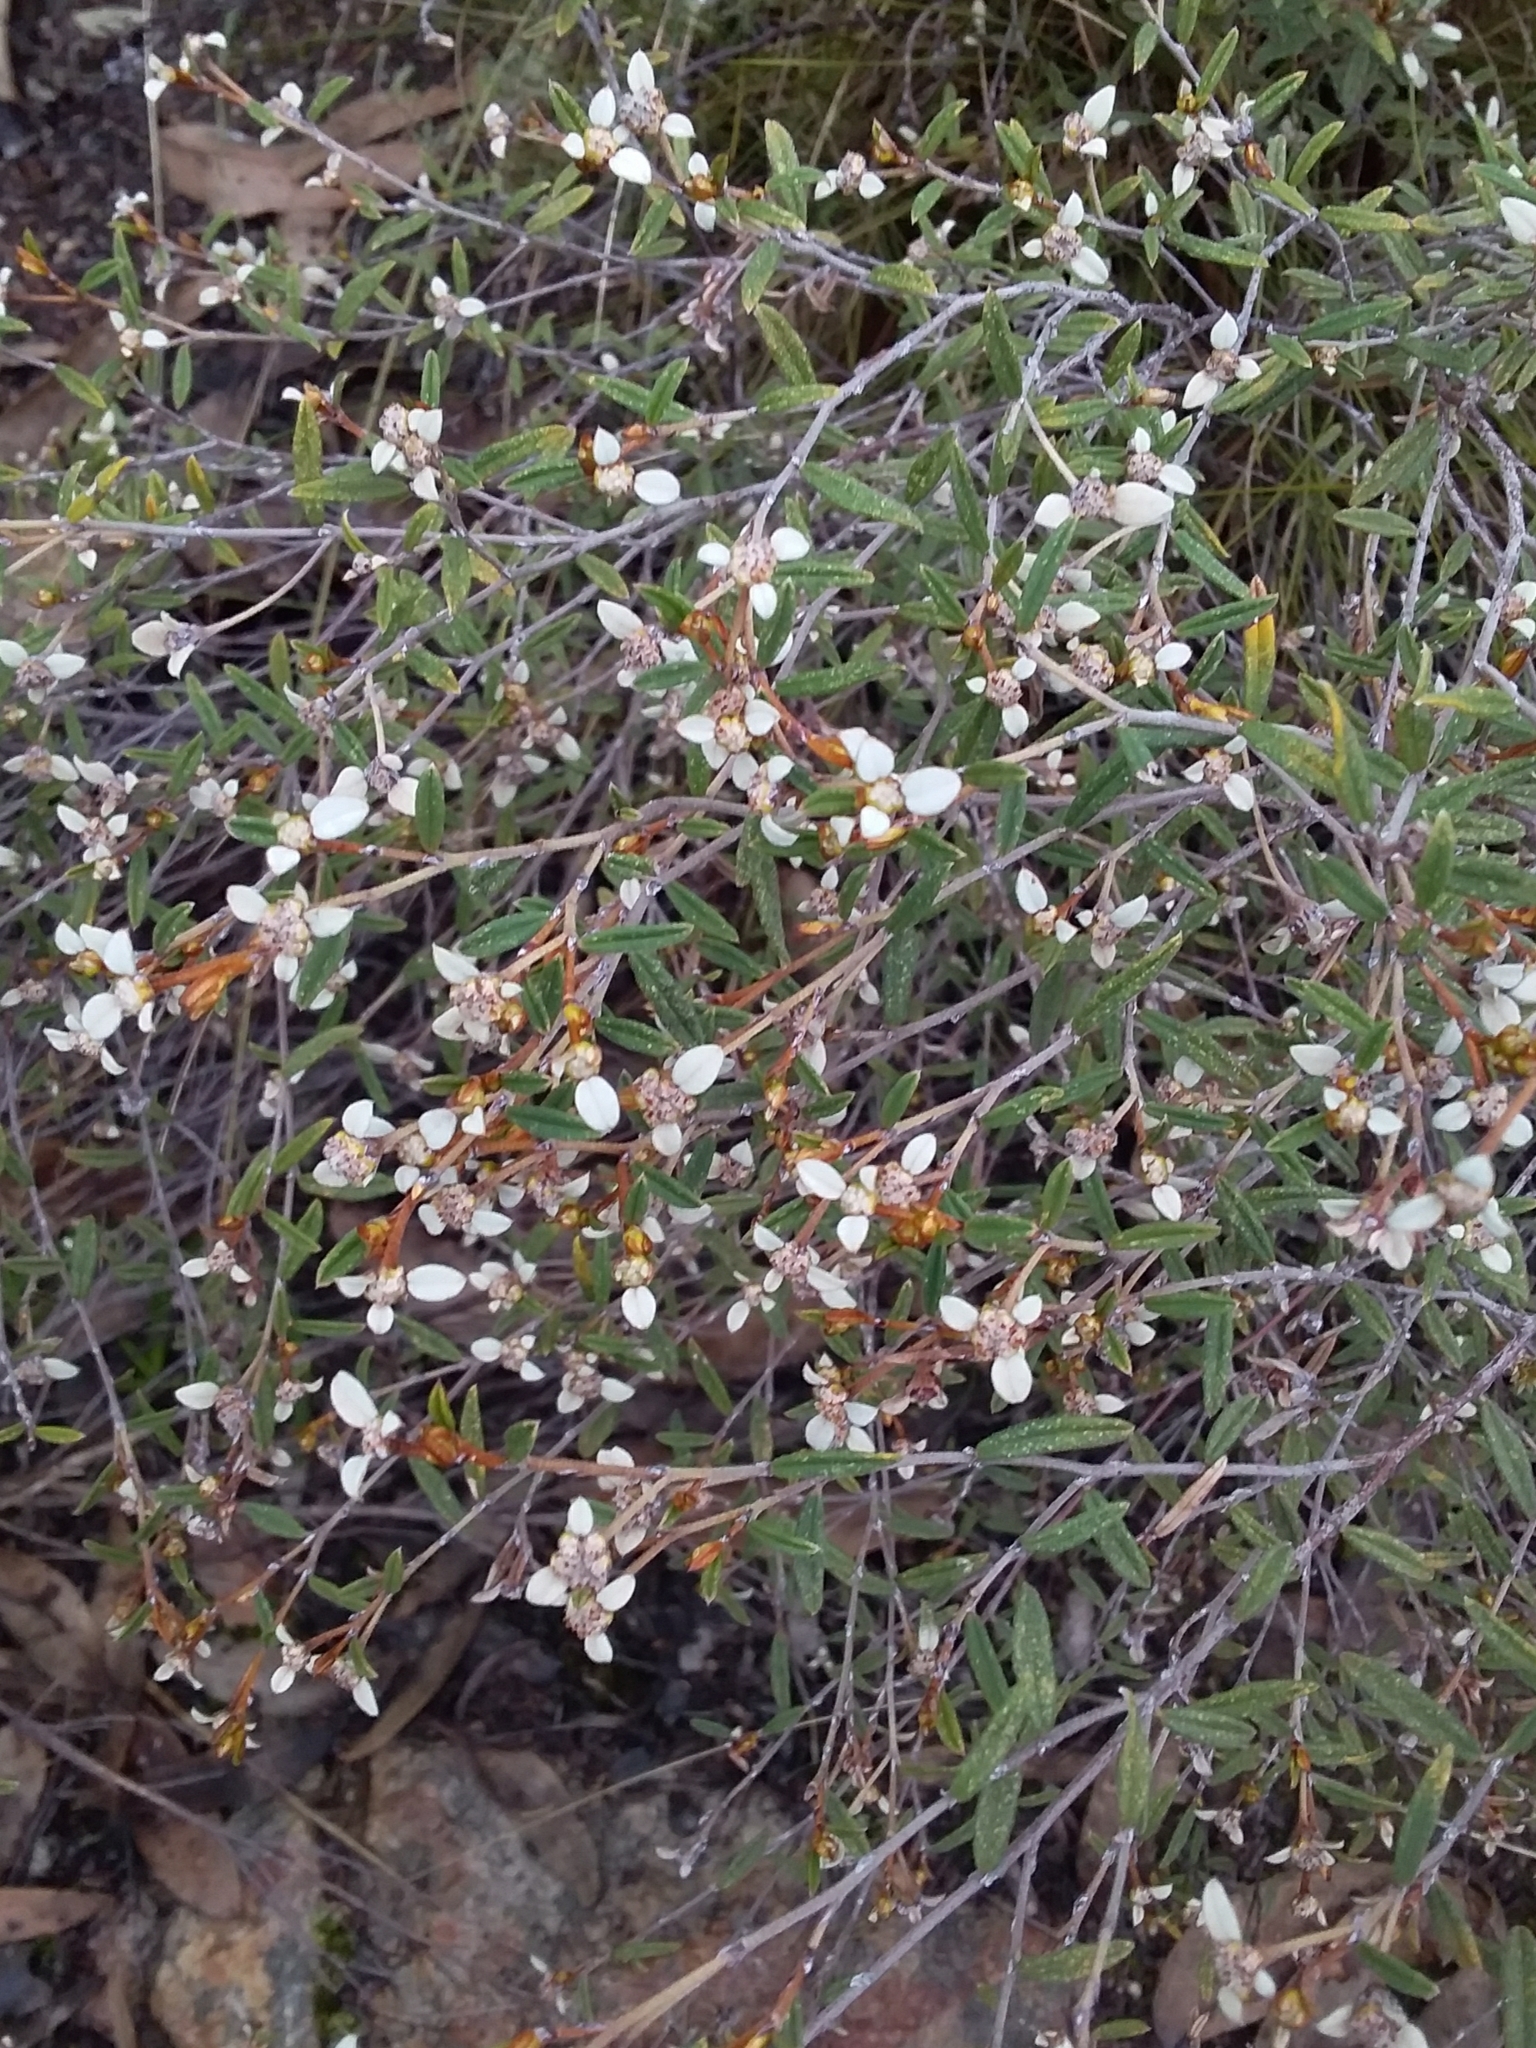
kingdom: Plantae
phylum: Tracheophyta
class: Magnoliopsida
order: Rosales
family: Rhamnaceae
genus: Spyridium
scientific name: Spyridium vexilliferum
